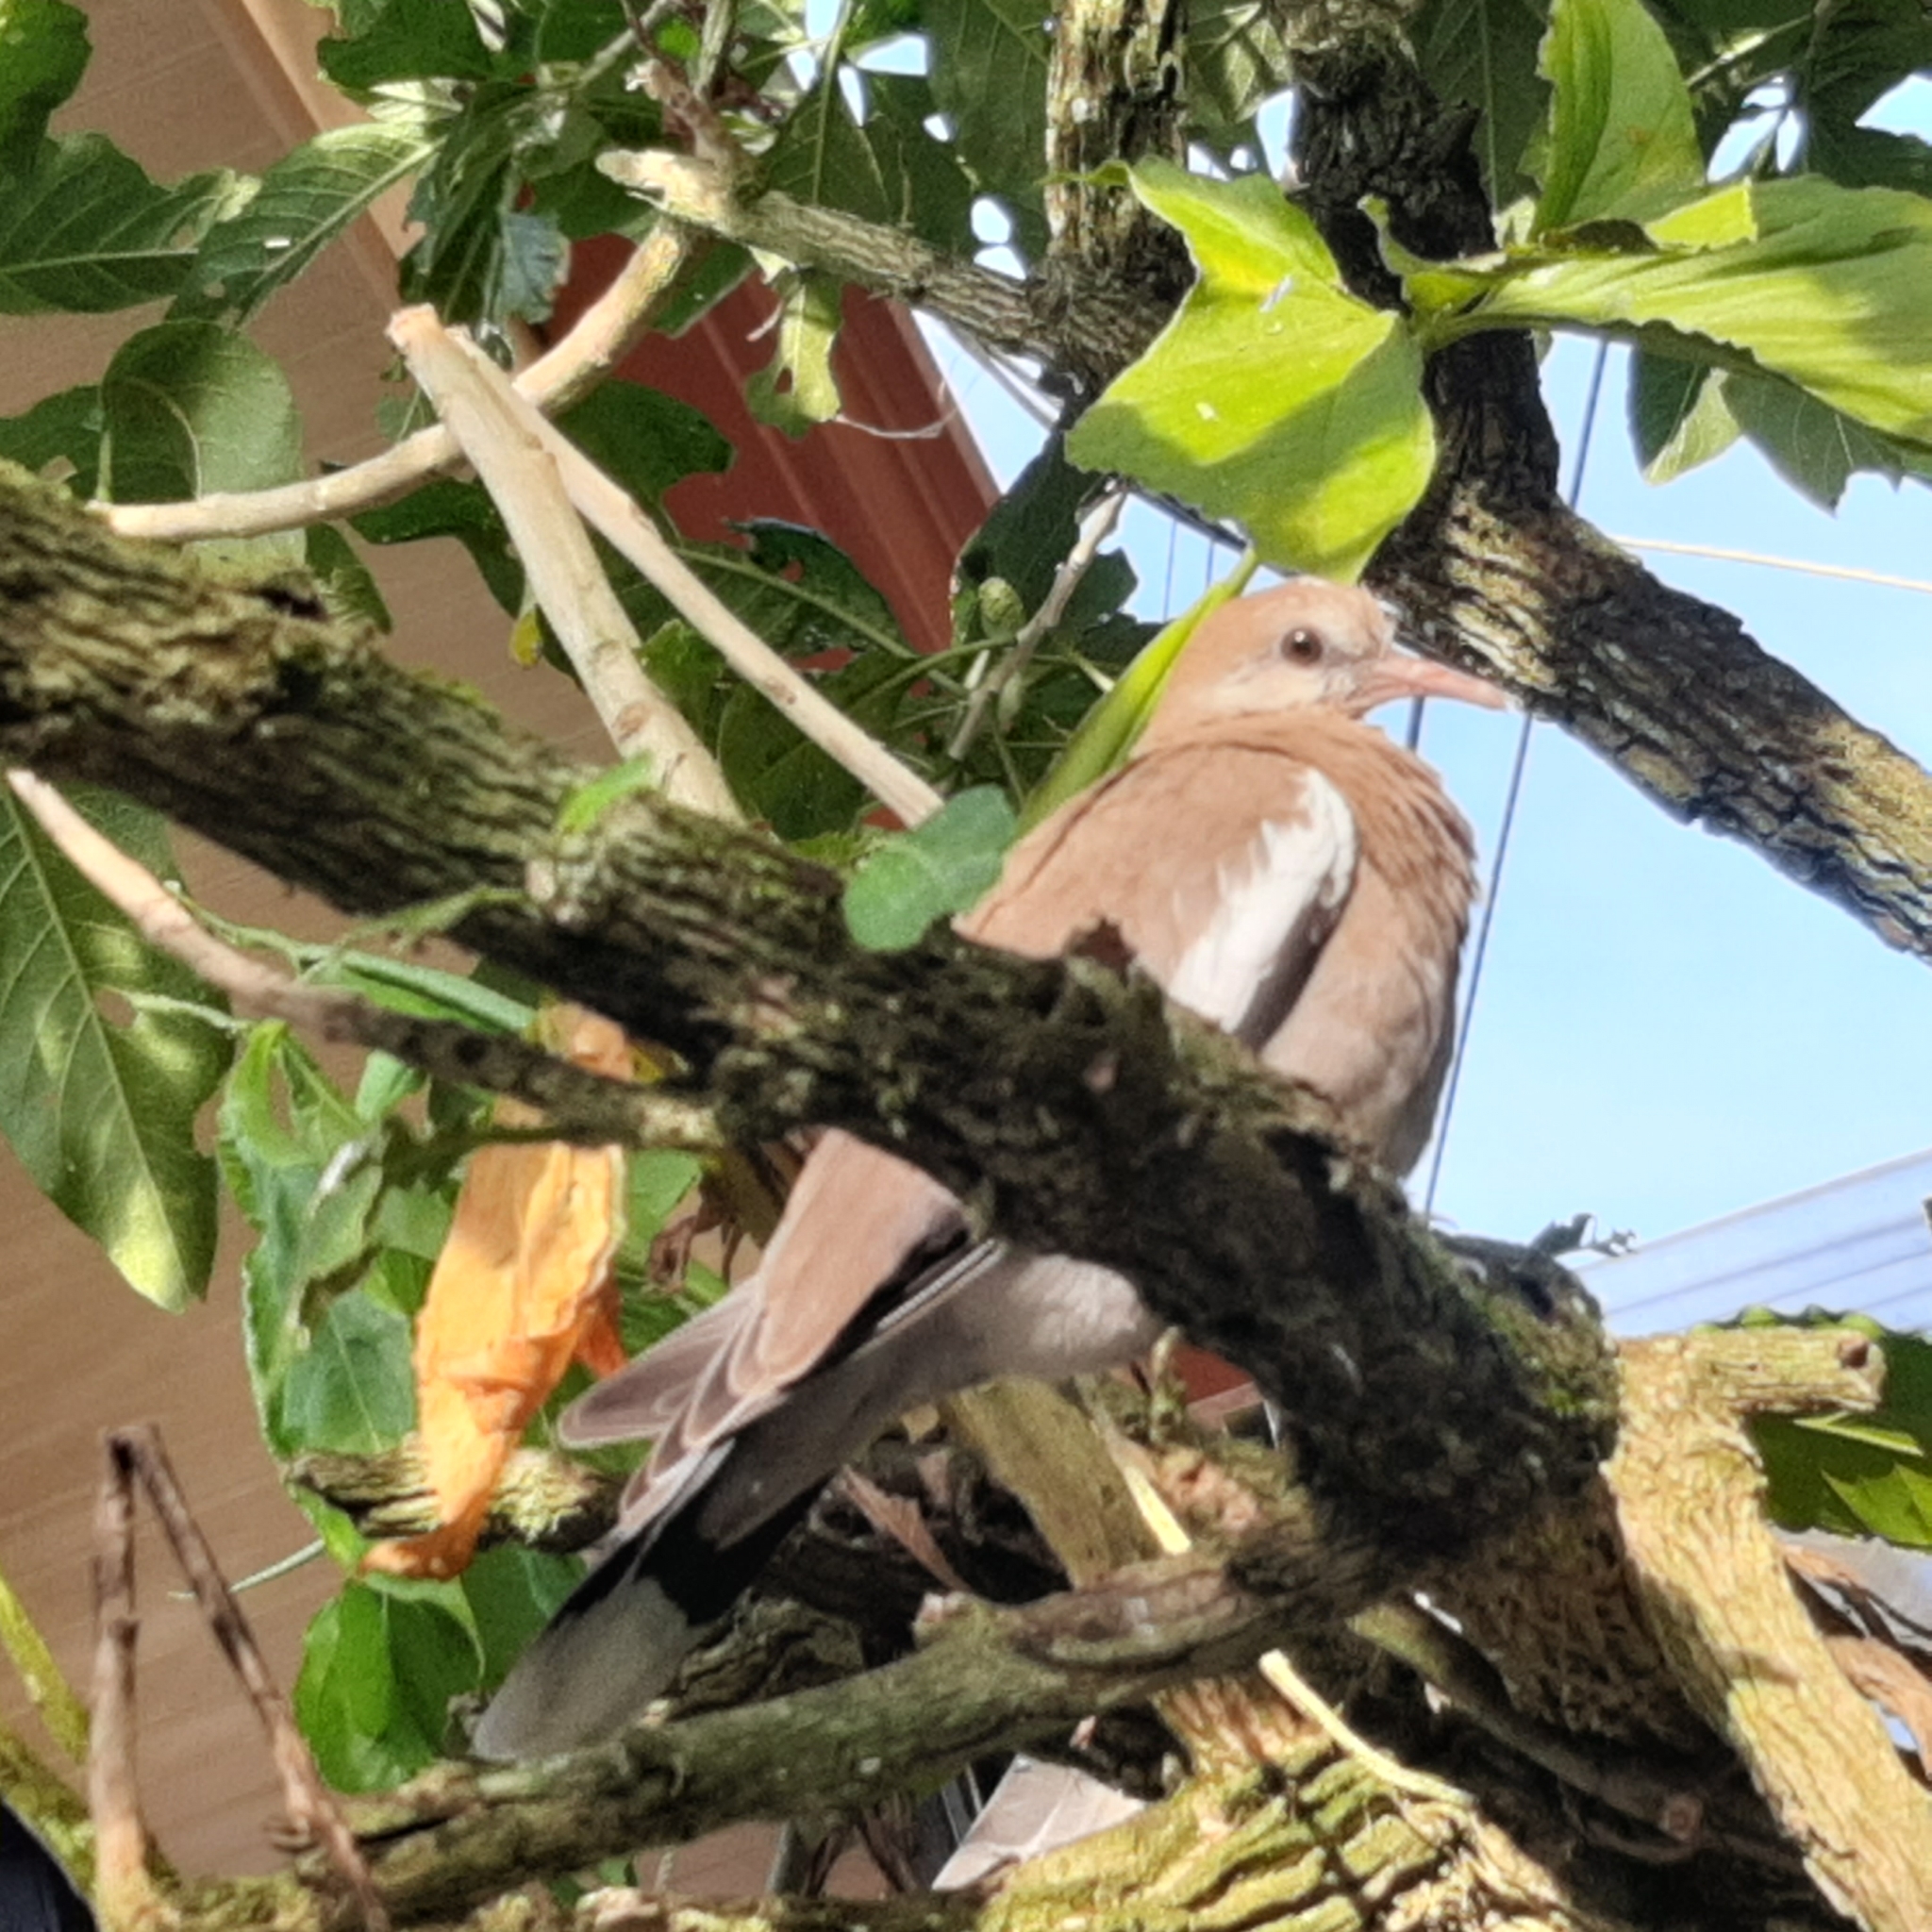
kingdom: Animalia
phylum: Chordata
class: Aves
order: Columbiformes
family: Columbidae
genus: Zenaida
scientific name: Zenaida asiatica
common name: White-winged dove
